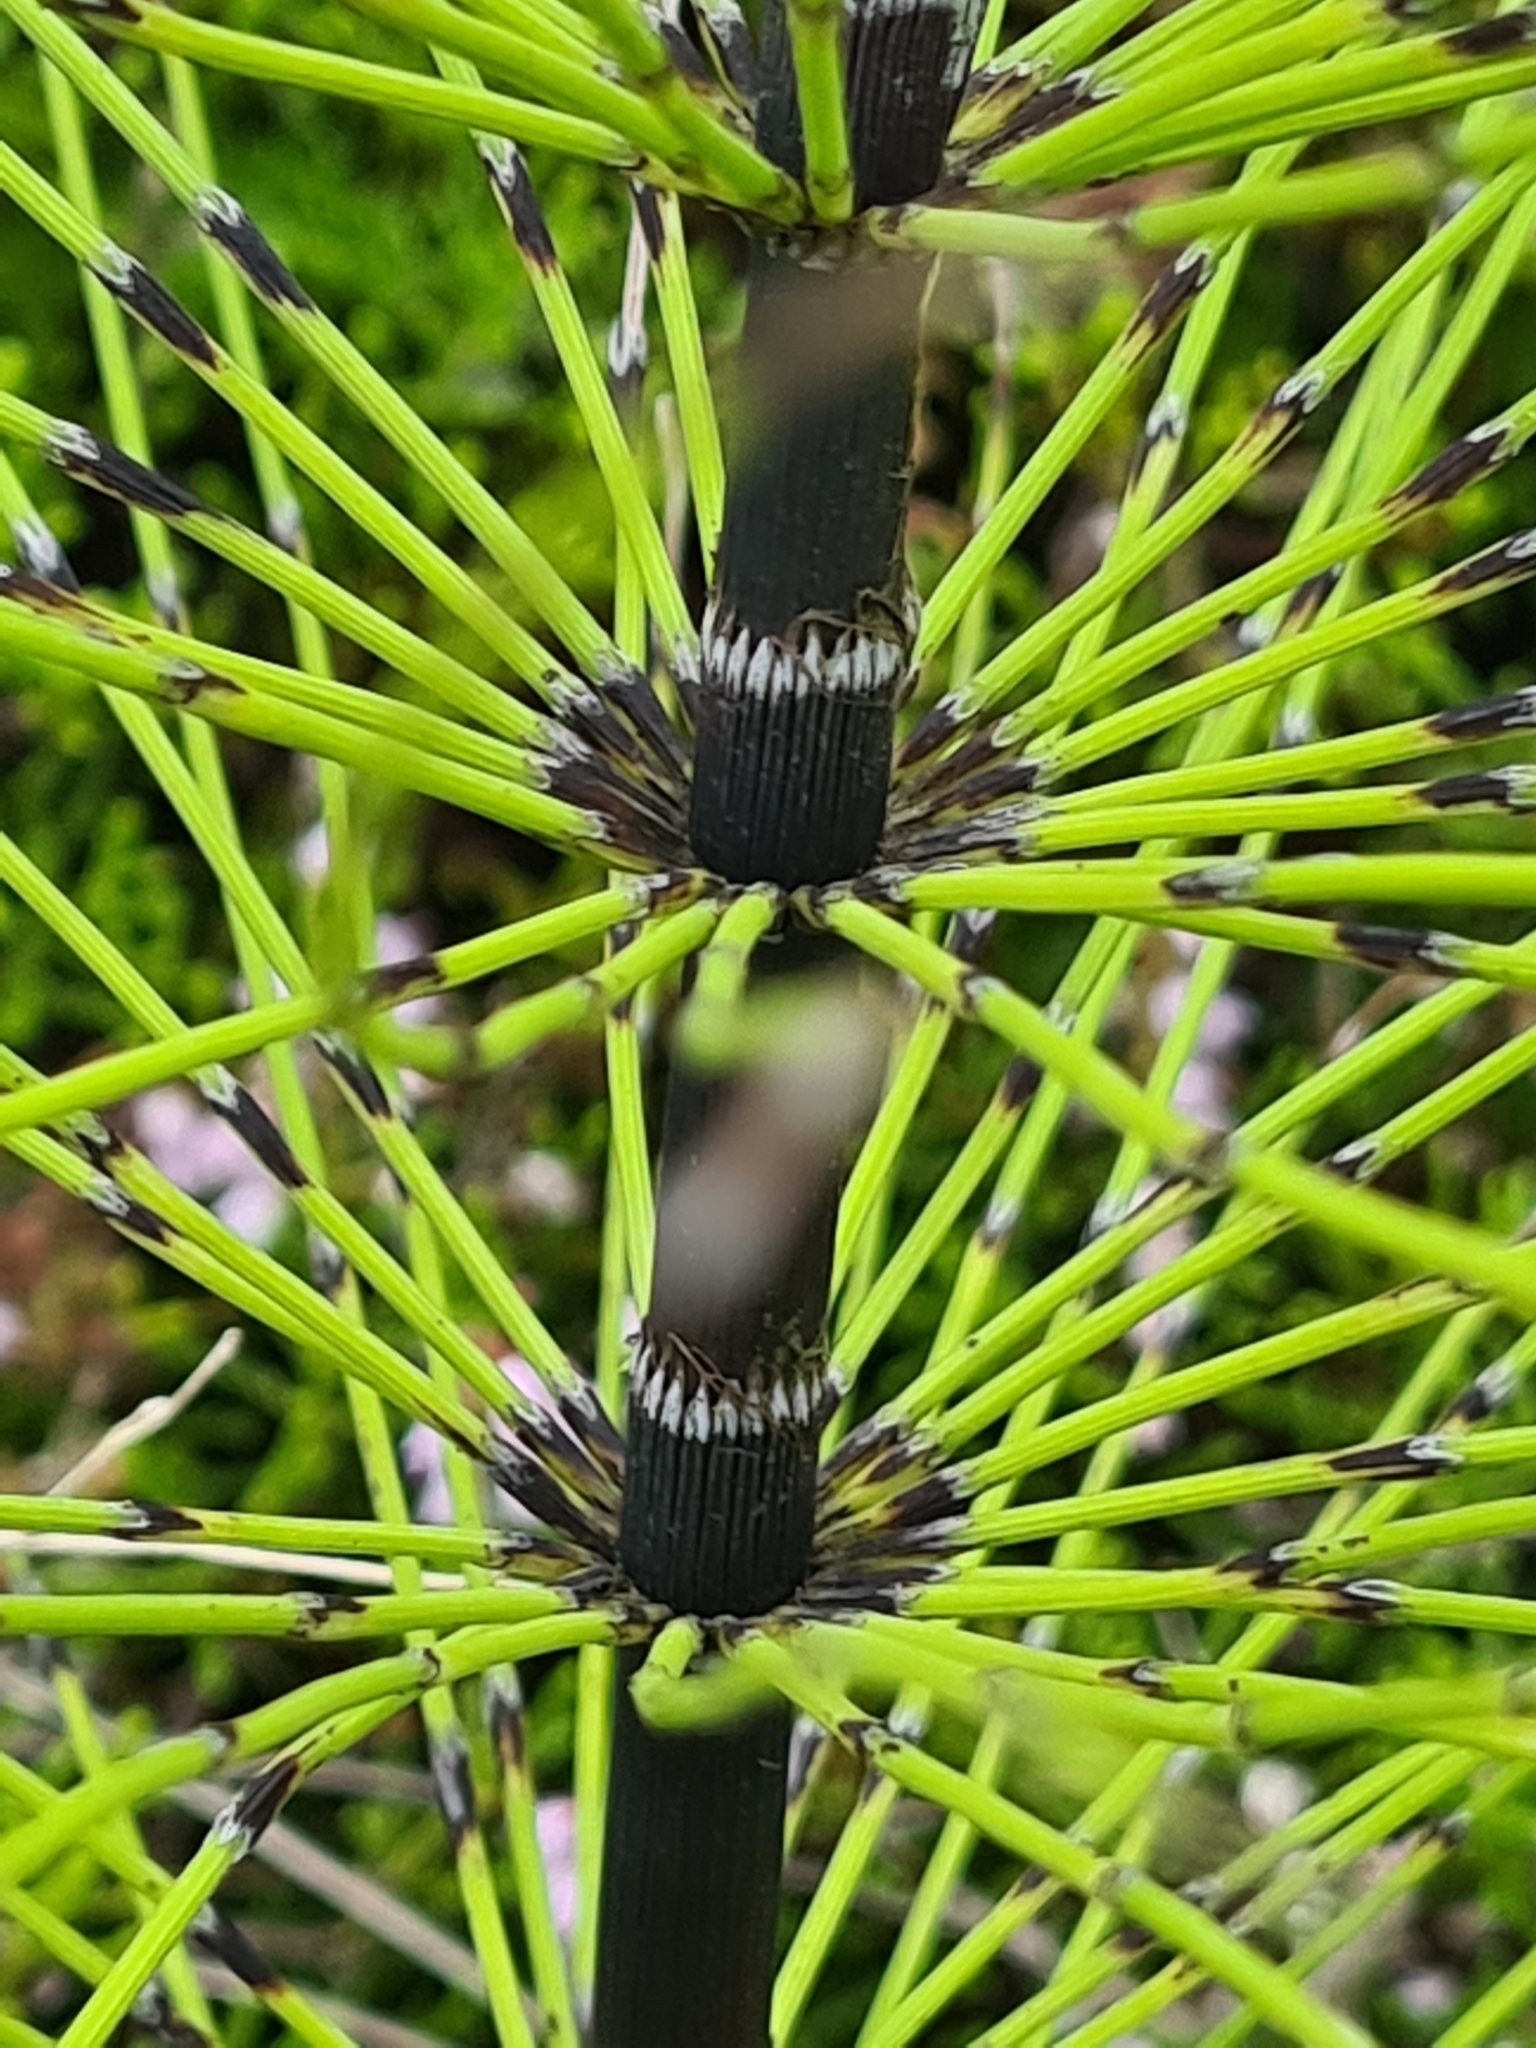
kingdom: Plantae
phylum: Tracheophyta
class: Polypodiopsida
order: Equisetales
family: Equisetaceae
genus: Equisetum
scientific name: Equisetum telmateia
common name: Great horsetail
